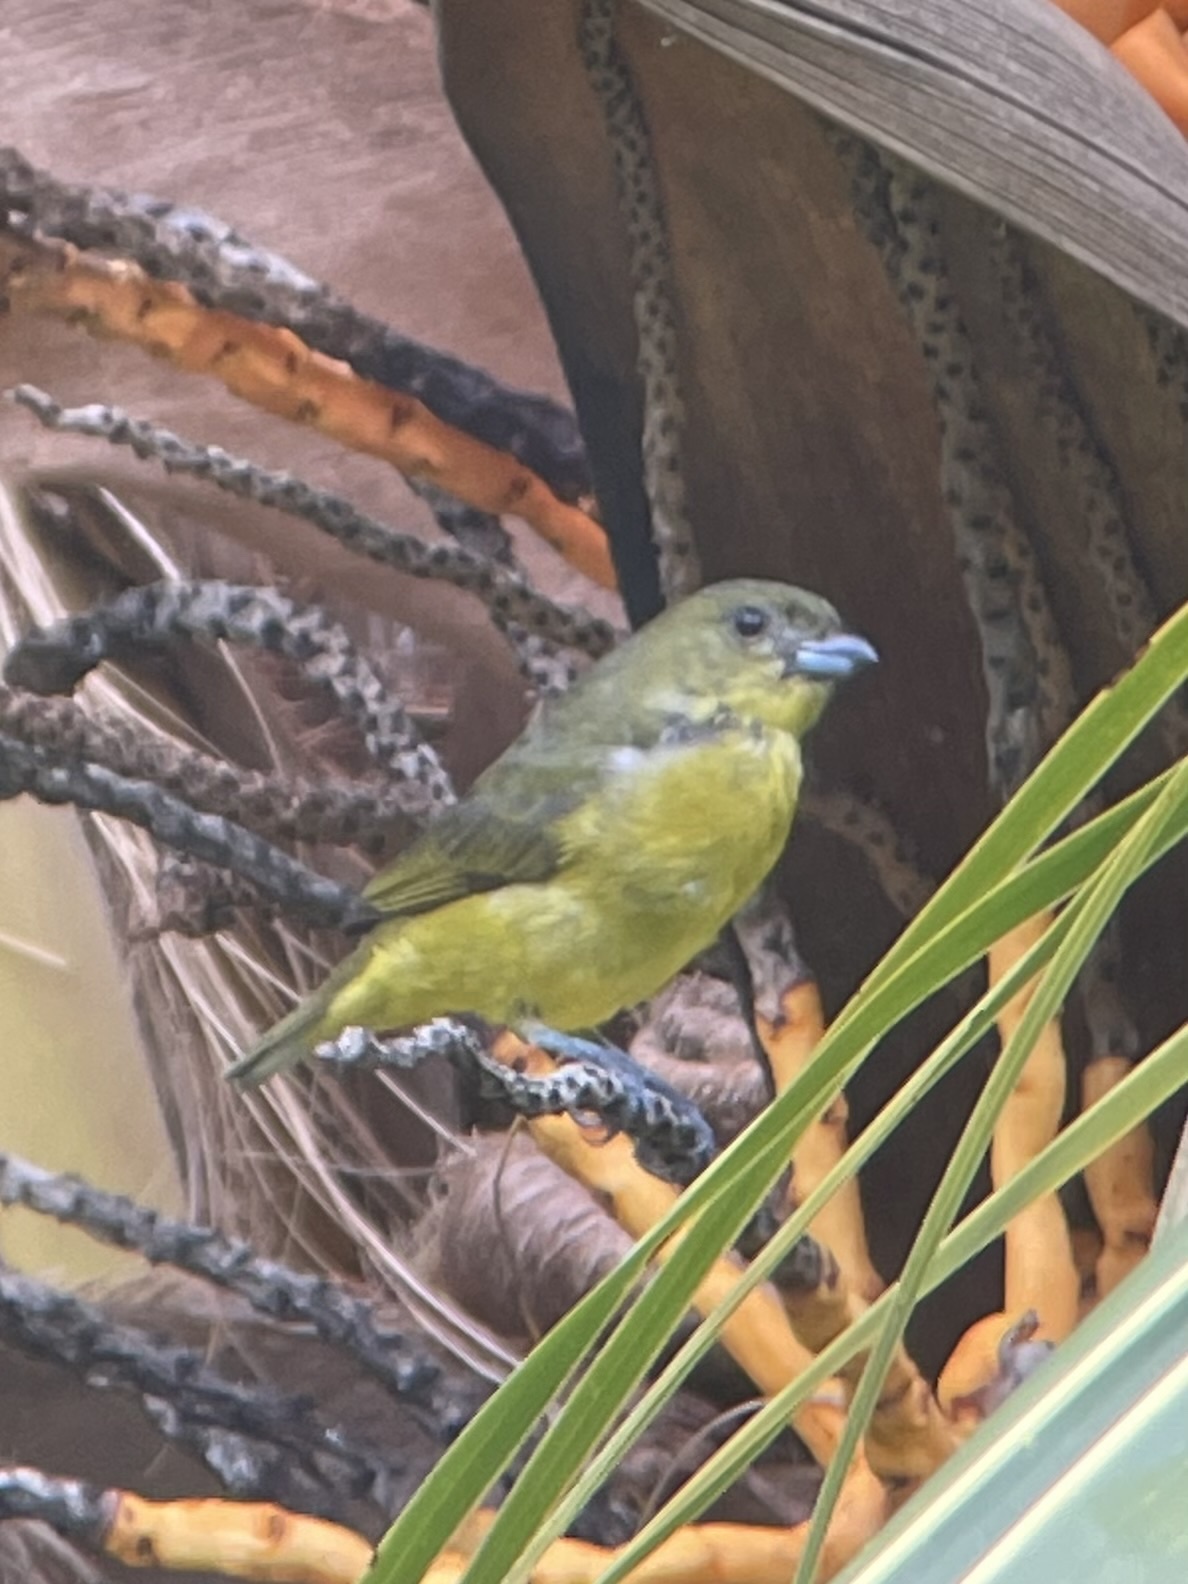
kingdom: Animalia
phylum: Chordata
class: Aves
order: Passeriformes
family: Fringillidae
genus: Euphonia
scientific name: Euphonia laniirostris
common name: Thick-billed euphonia
